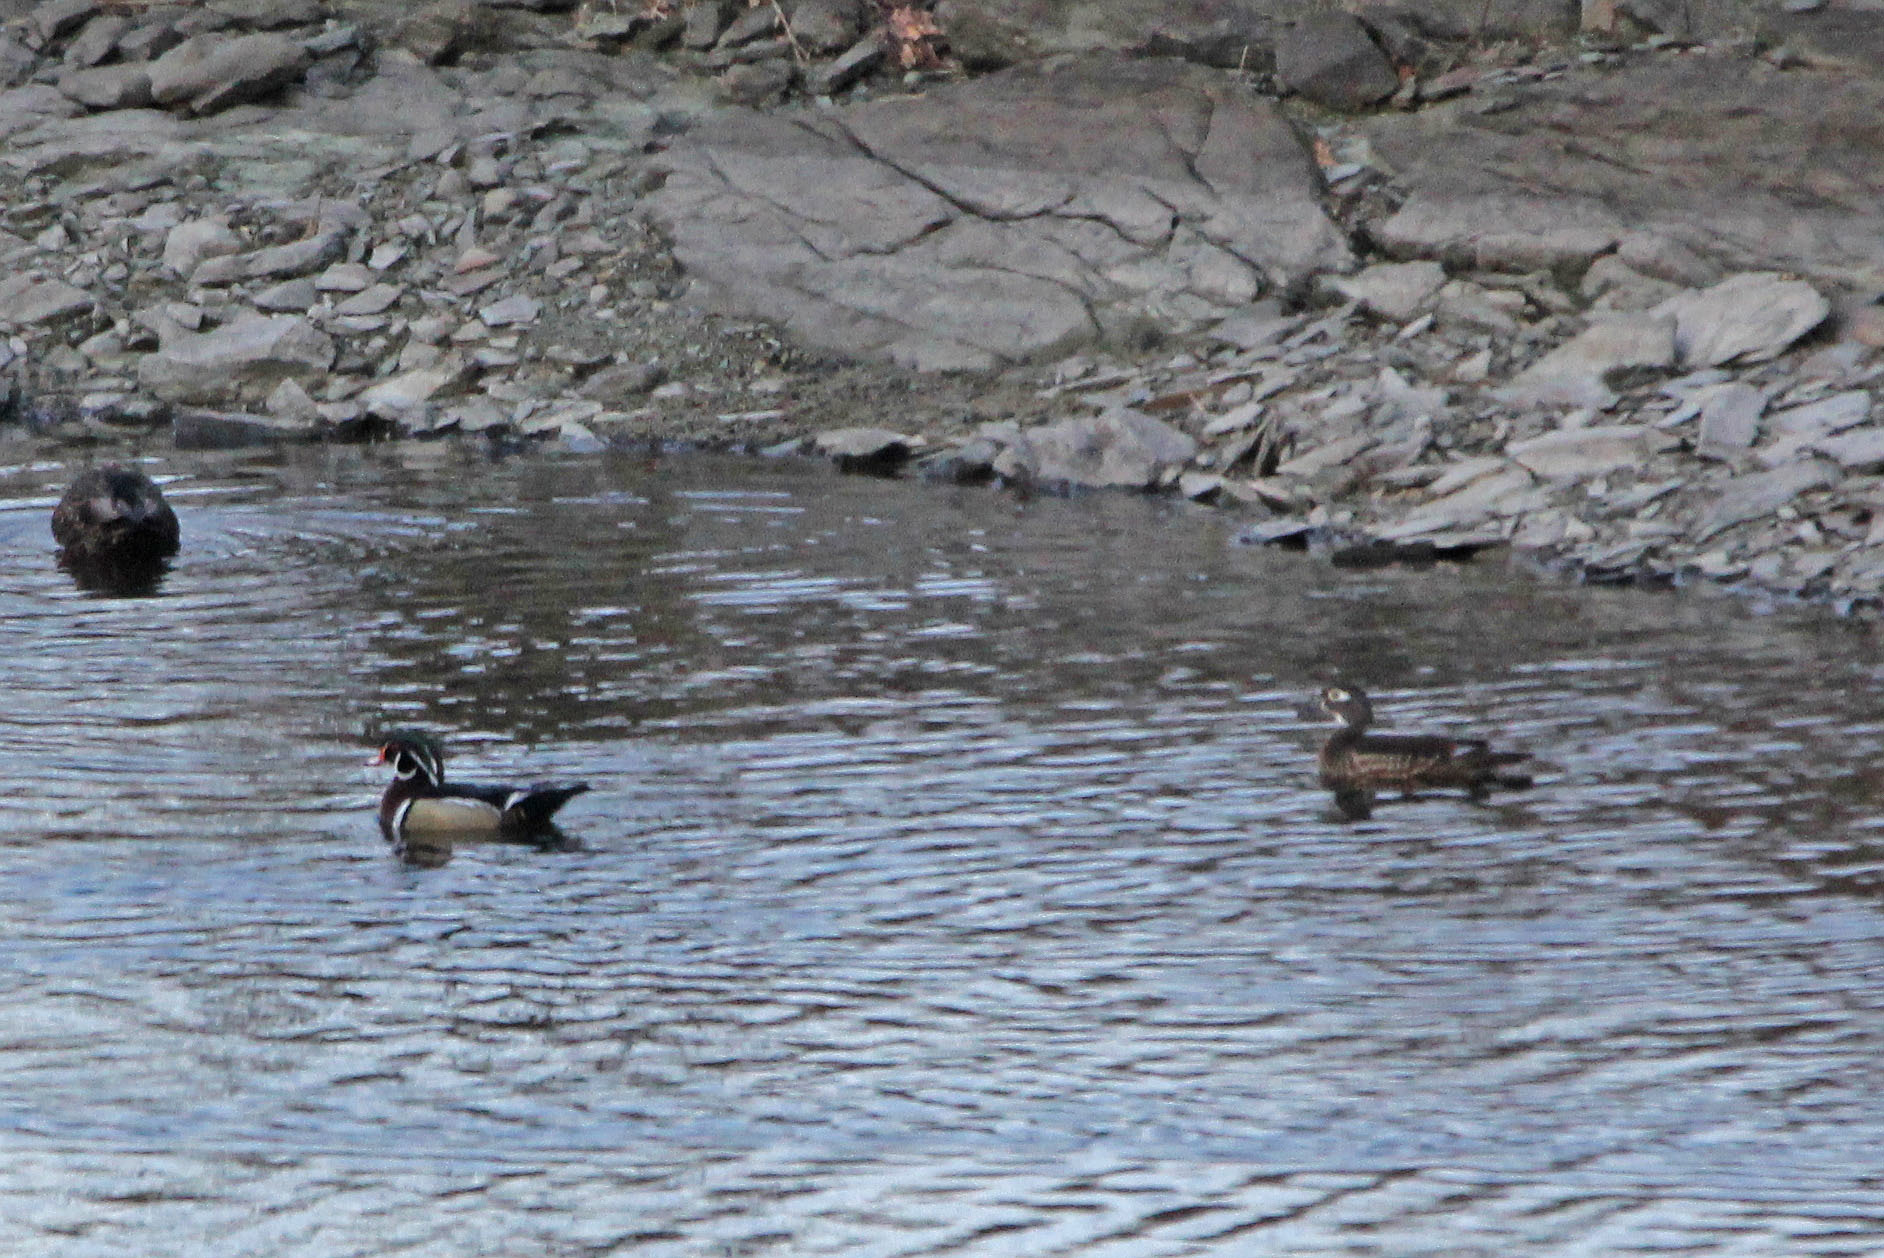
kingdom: Animalia
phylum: Chordata
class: Aves
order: Anseriformes
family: Anatidae
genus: Aix
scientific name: Aix sponsa
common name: Wood duck
